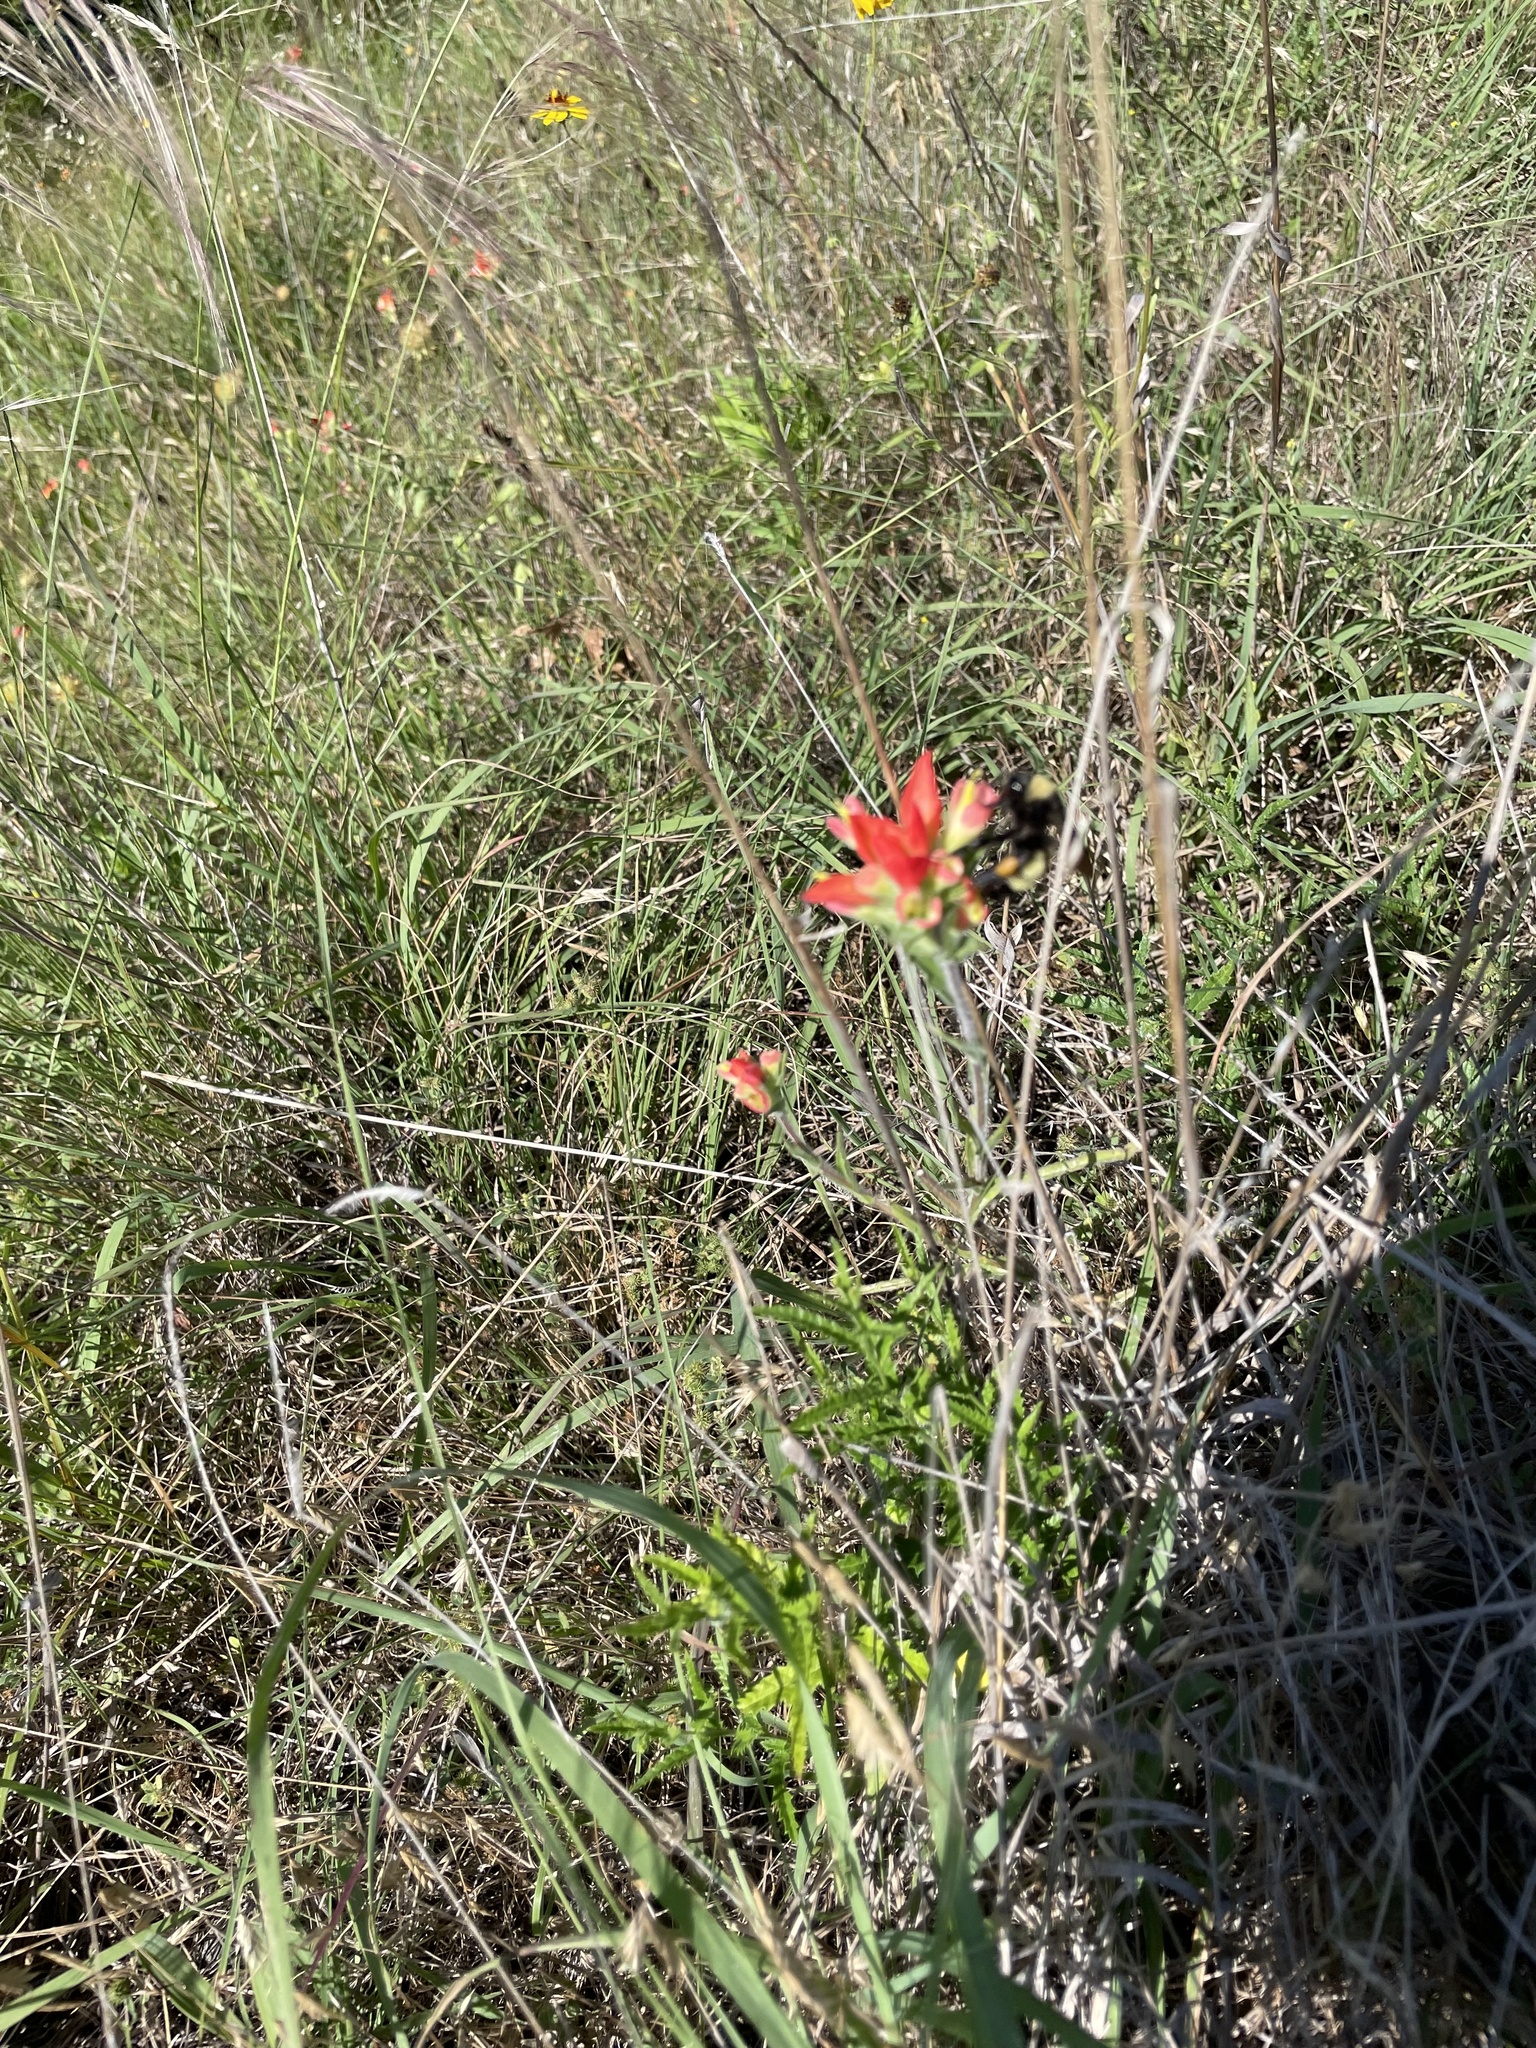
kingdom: Animalia
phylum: Arthropoda
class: Insecta
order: Hymenoptera
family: Apidae
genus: Bombus
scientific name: Bombus pensylvanicus
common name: Bumble bee
